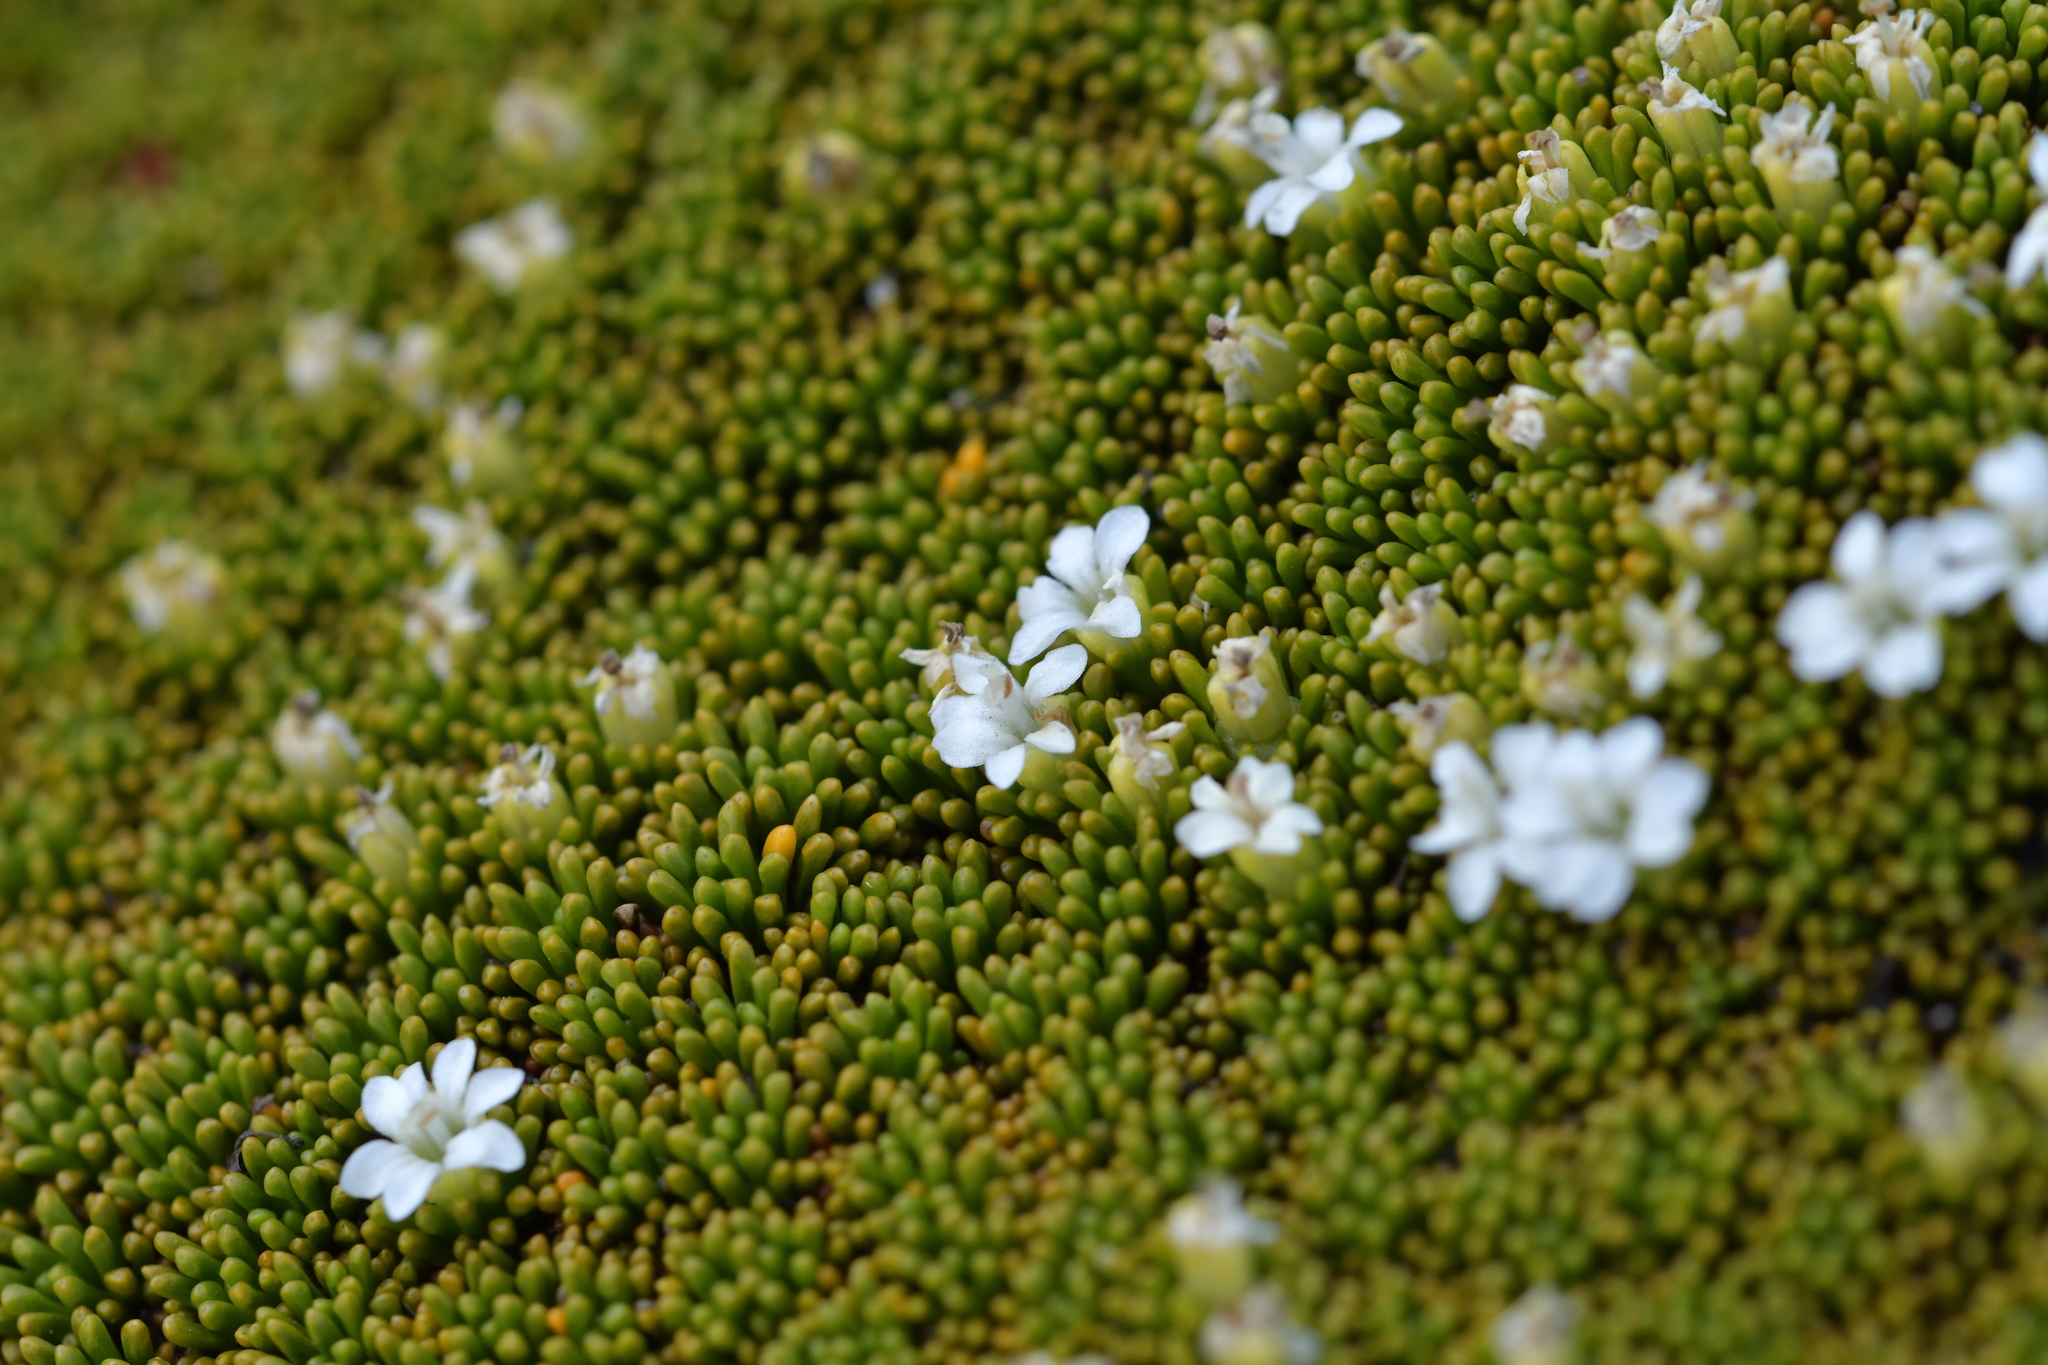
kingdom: Plantae
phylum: Tracheophyta
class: Magnoliopsida
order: Asterales
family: Stylidiaceae
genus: Phyllachne
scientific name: Phyllachne colensoi
